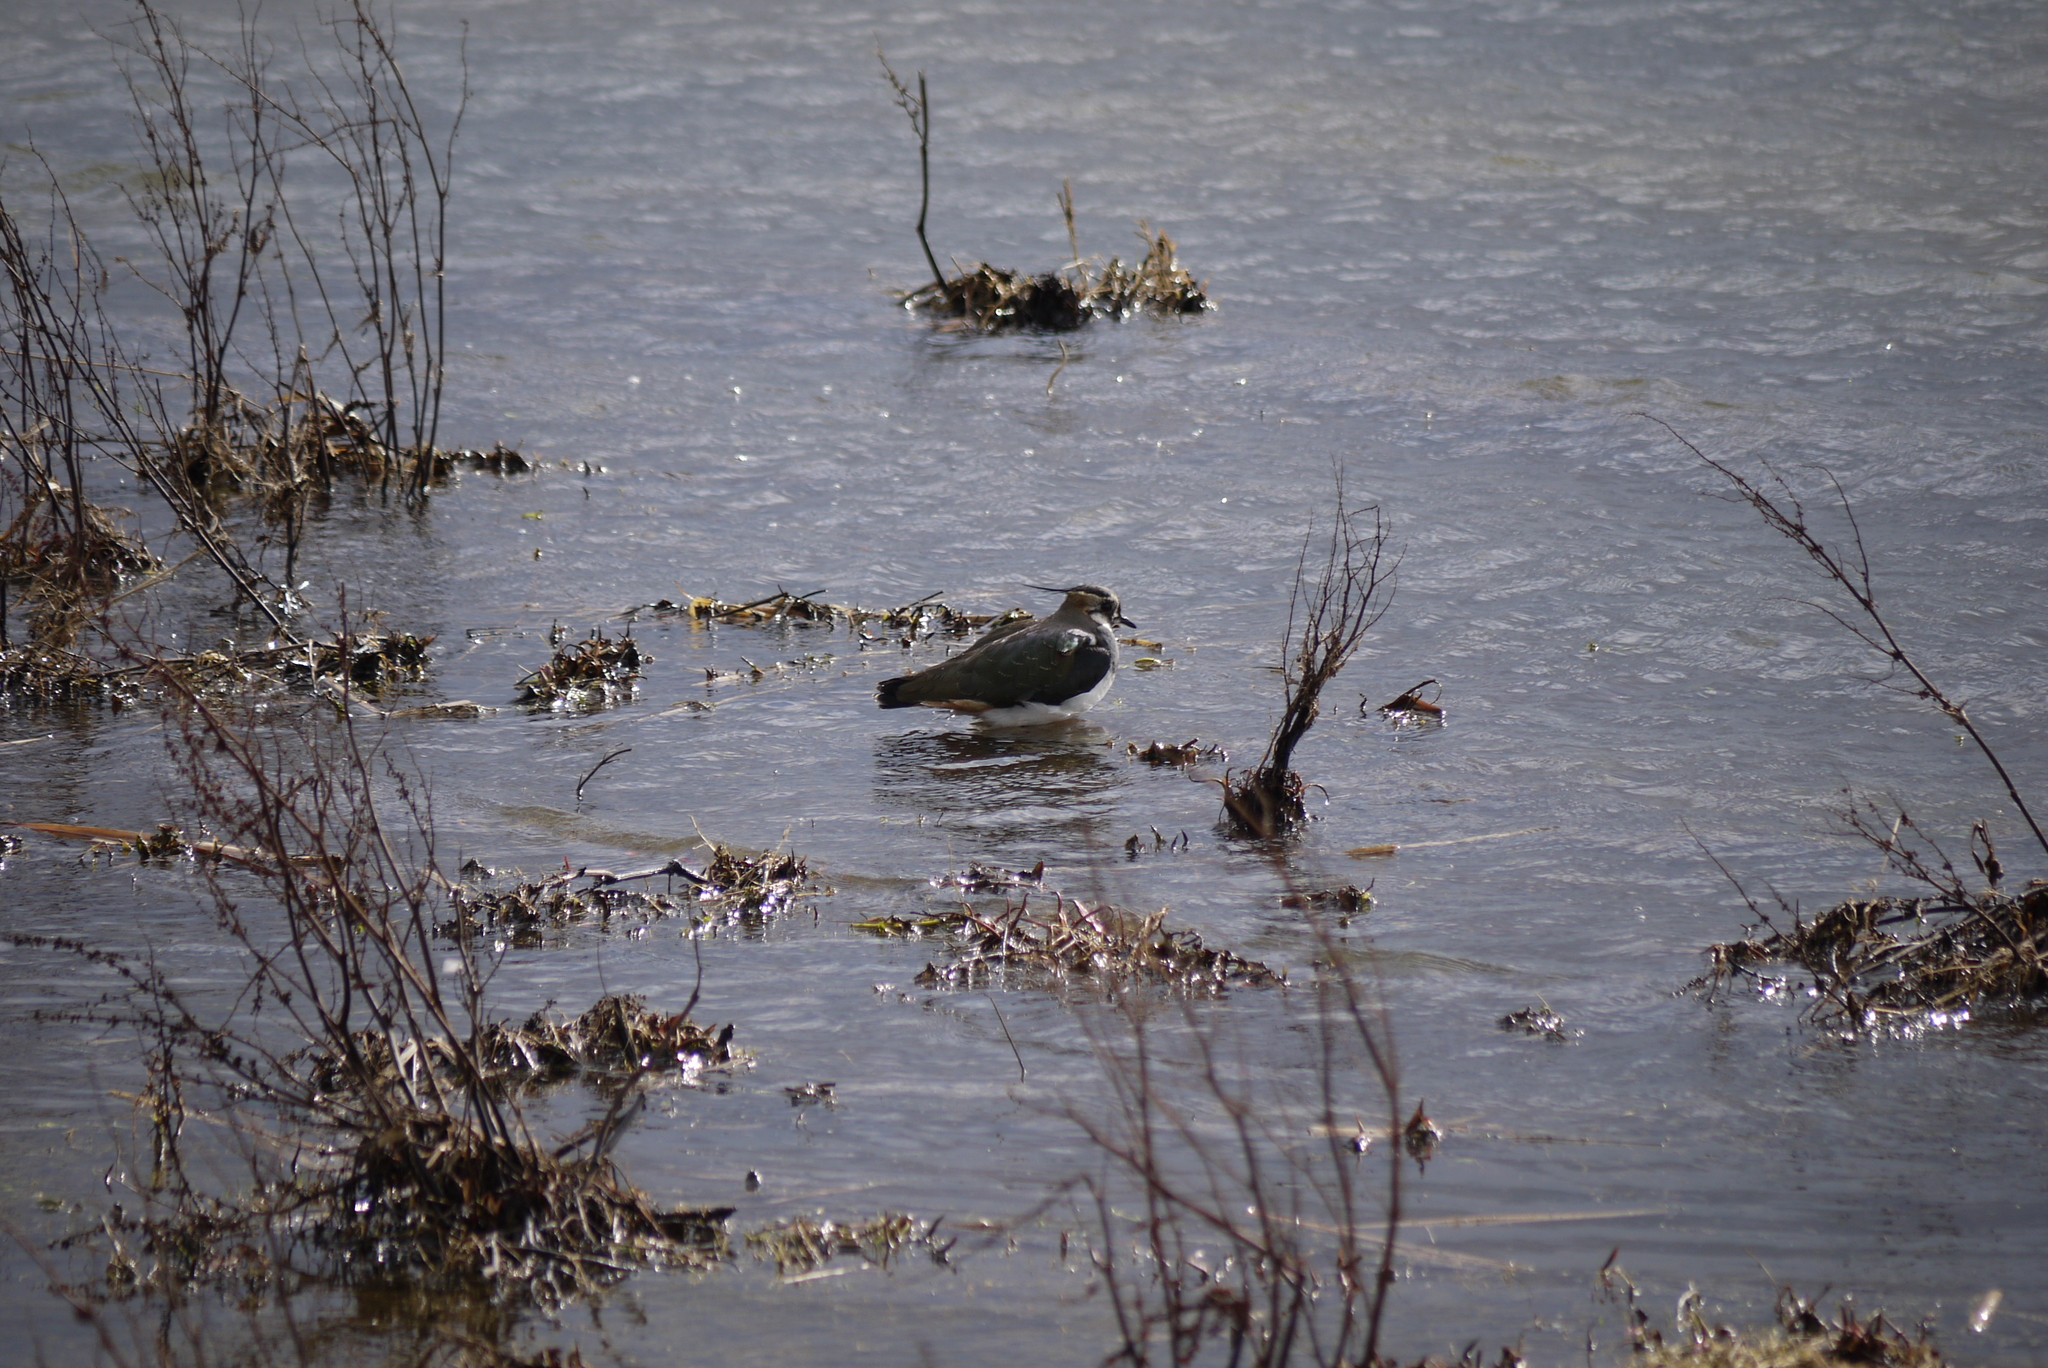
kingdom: Animalia
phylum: Chordata
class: Aves
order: Charadriiformes
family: Charadriidae
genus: Vanellus
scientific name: Vanellus vanellus
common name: Northern lapwing
